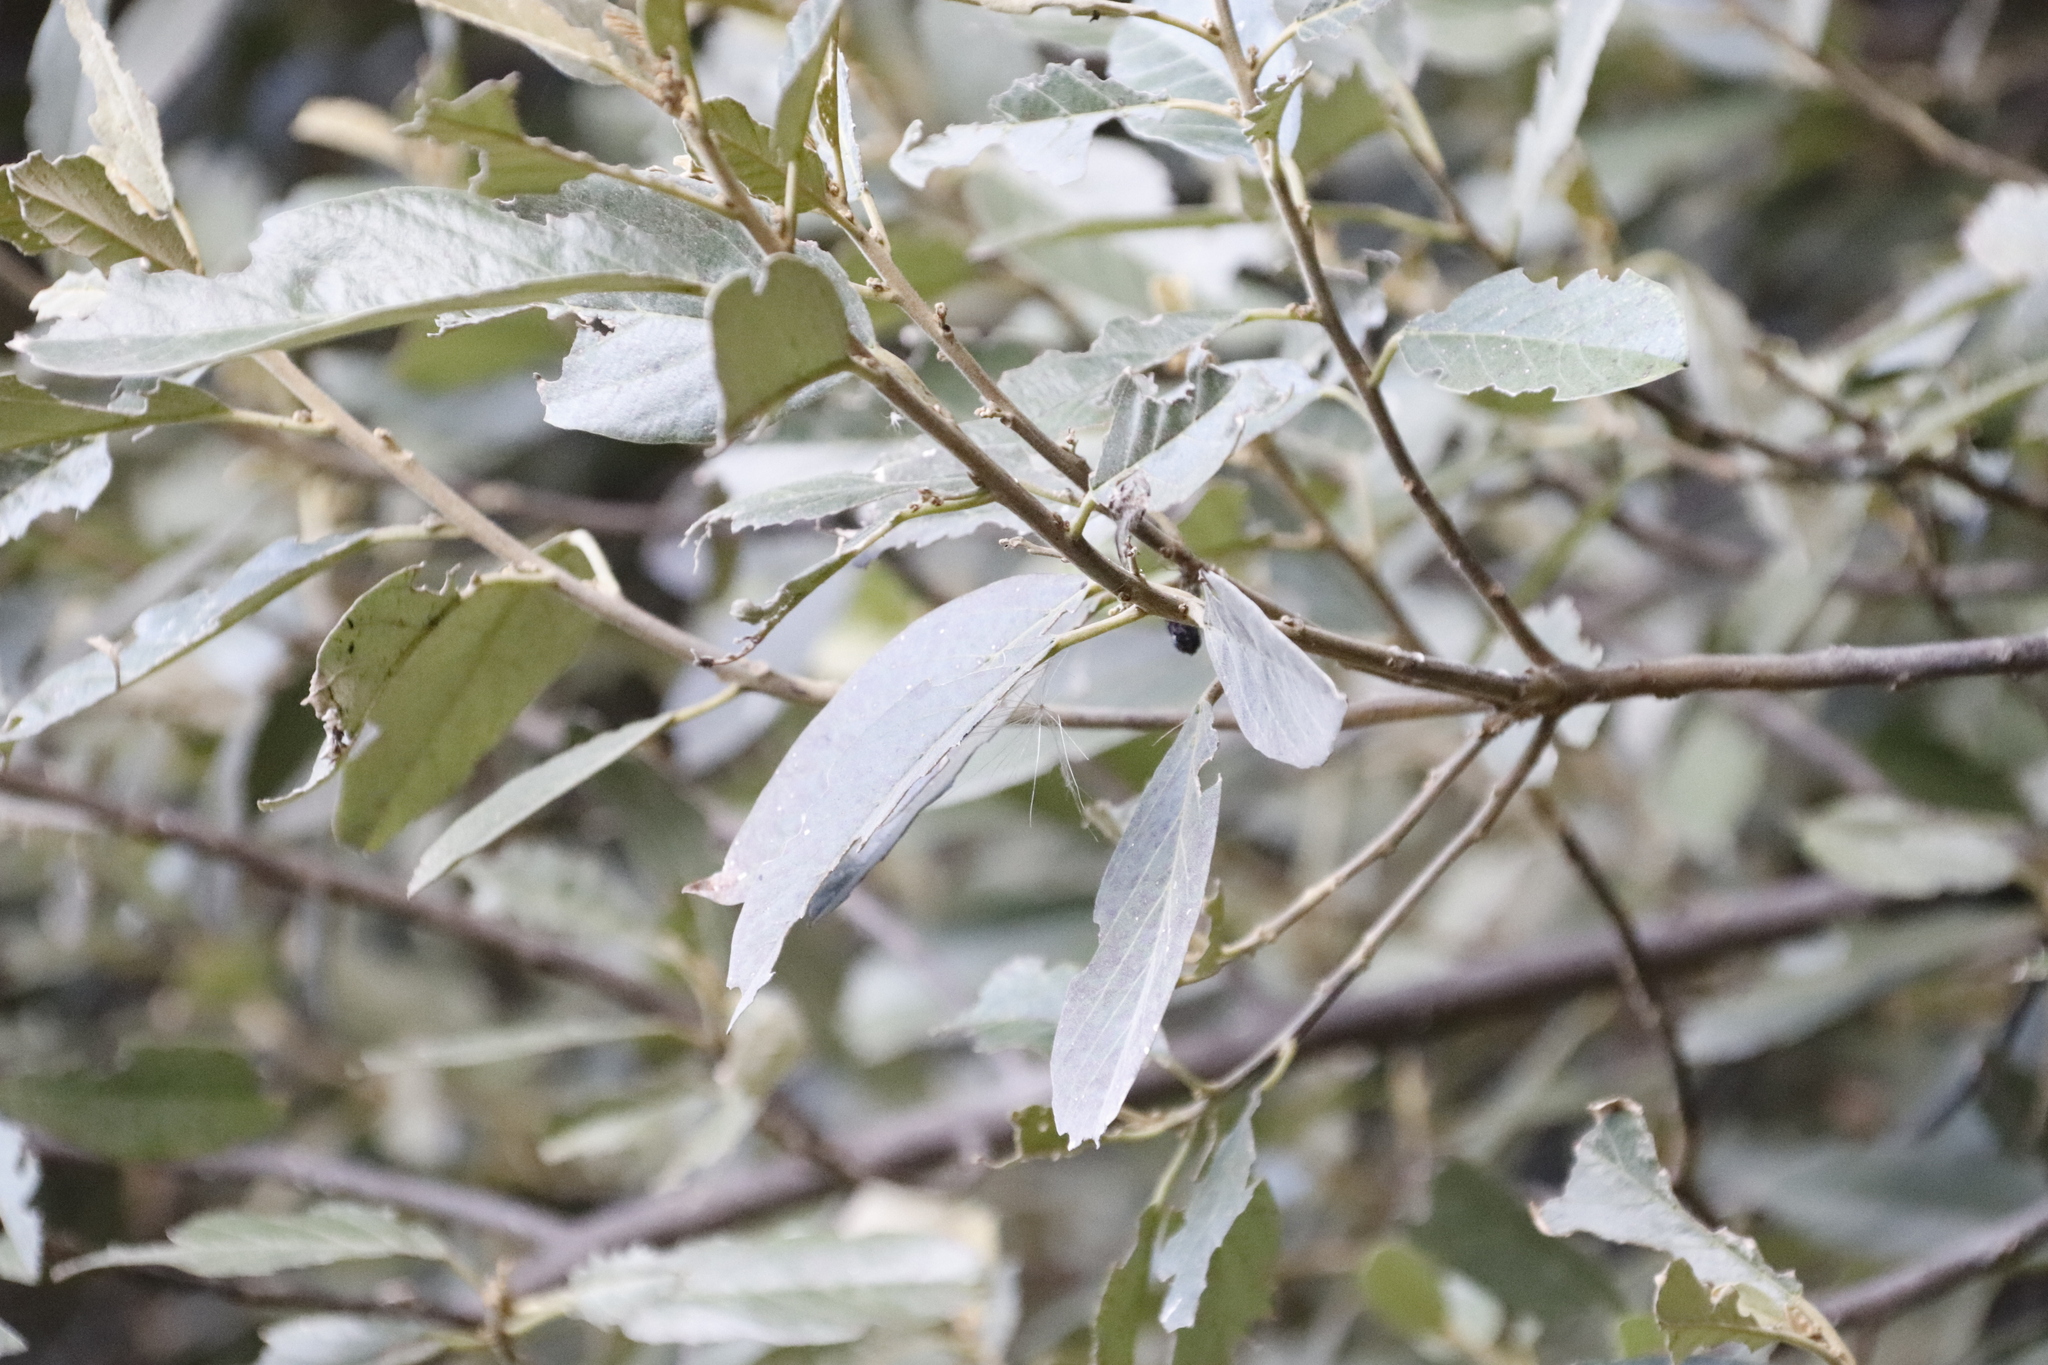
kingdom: Plantae
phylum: Tracheophyta
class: Magnoliopsida
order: Malpighiales
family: Achariaceae
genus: Kiggelaria
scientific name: Kiggelaria africana
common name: Wild peach
